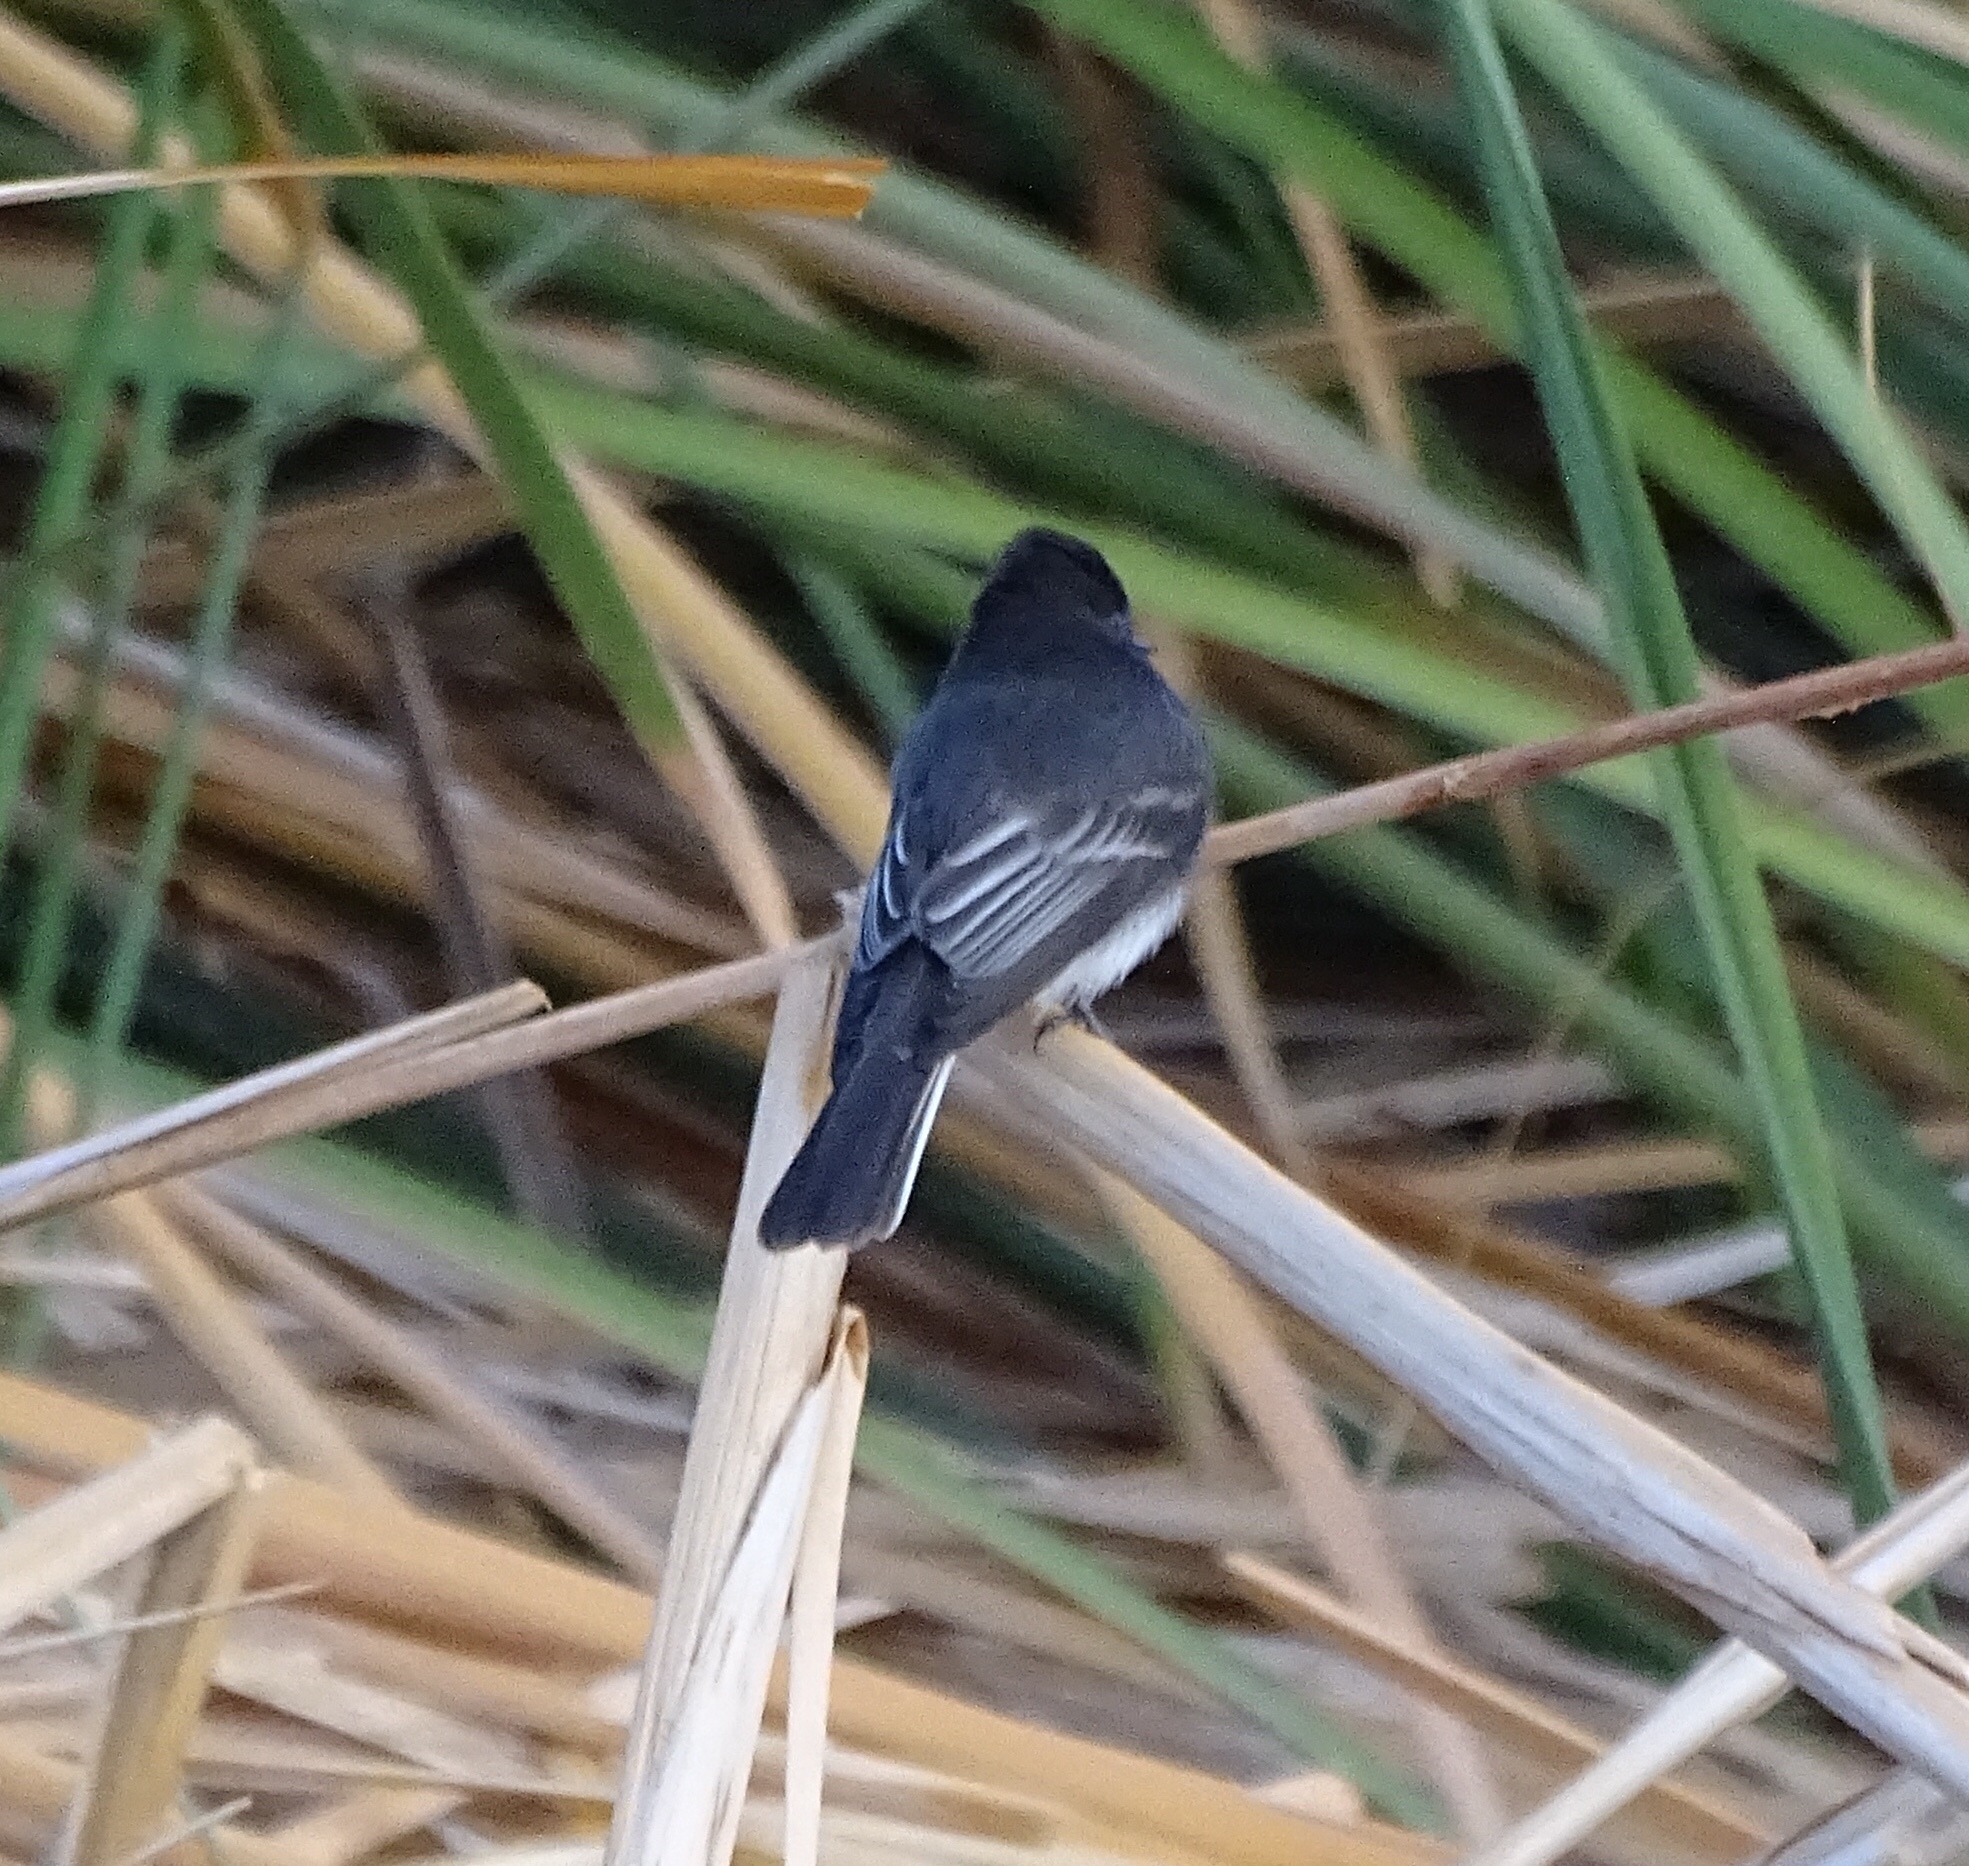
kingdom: Animalia
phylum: Chordata
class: Aves
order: Passeriformes
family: Tyrannidae
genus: Sayornis
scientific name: Sayornis nigricans
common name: Black phoebe
